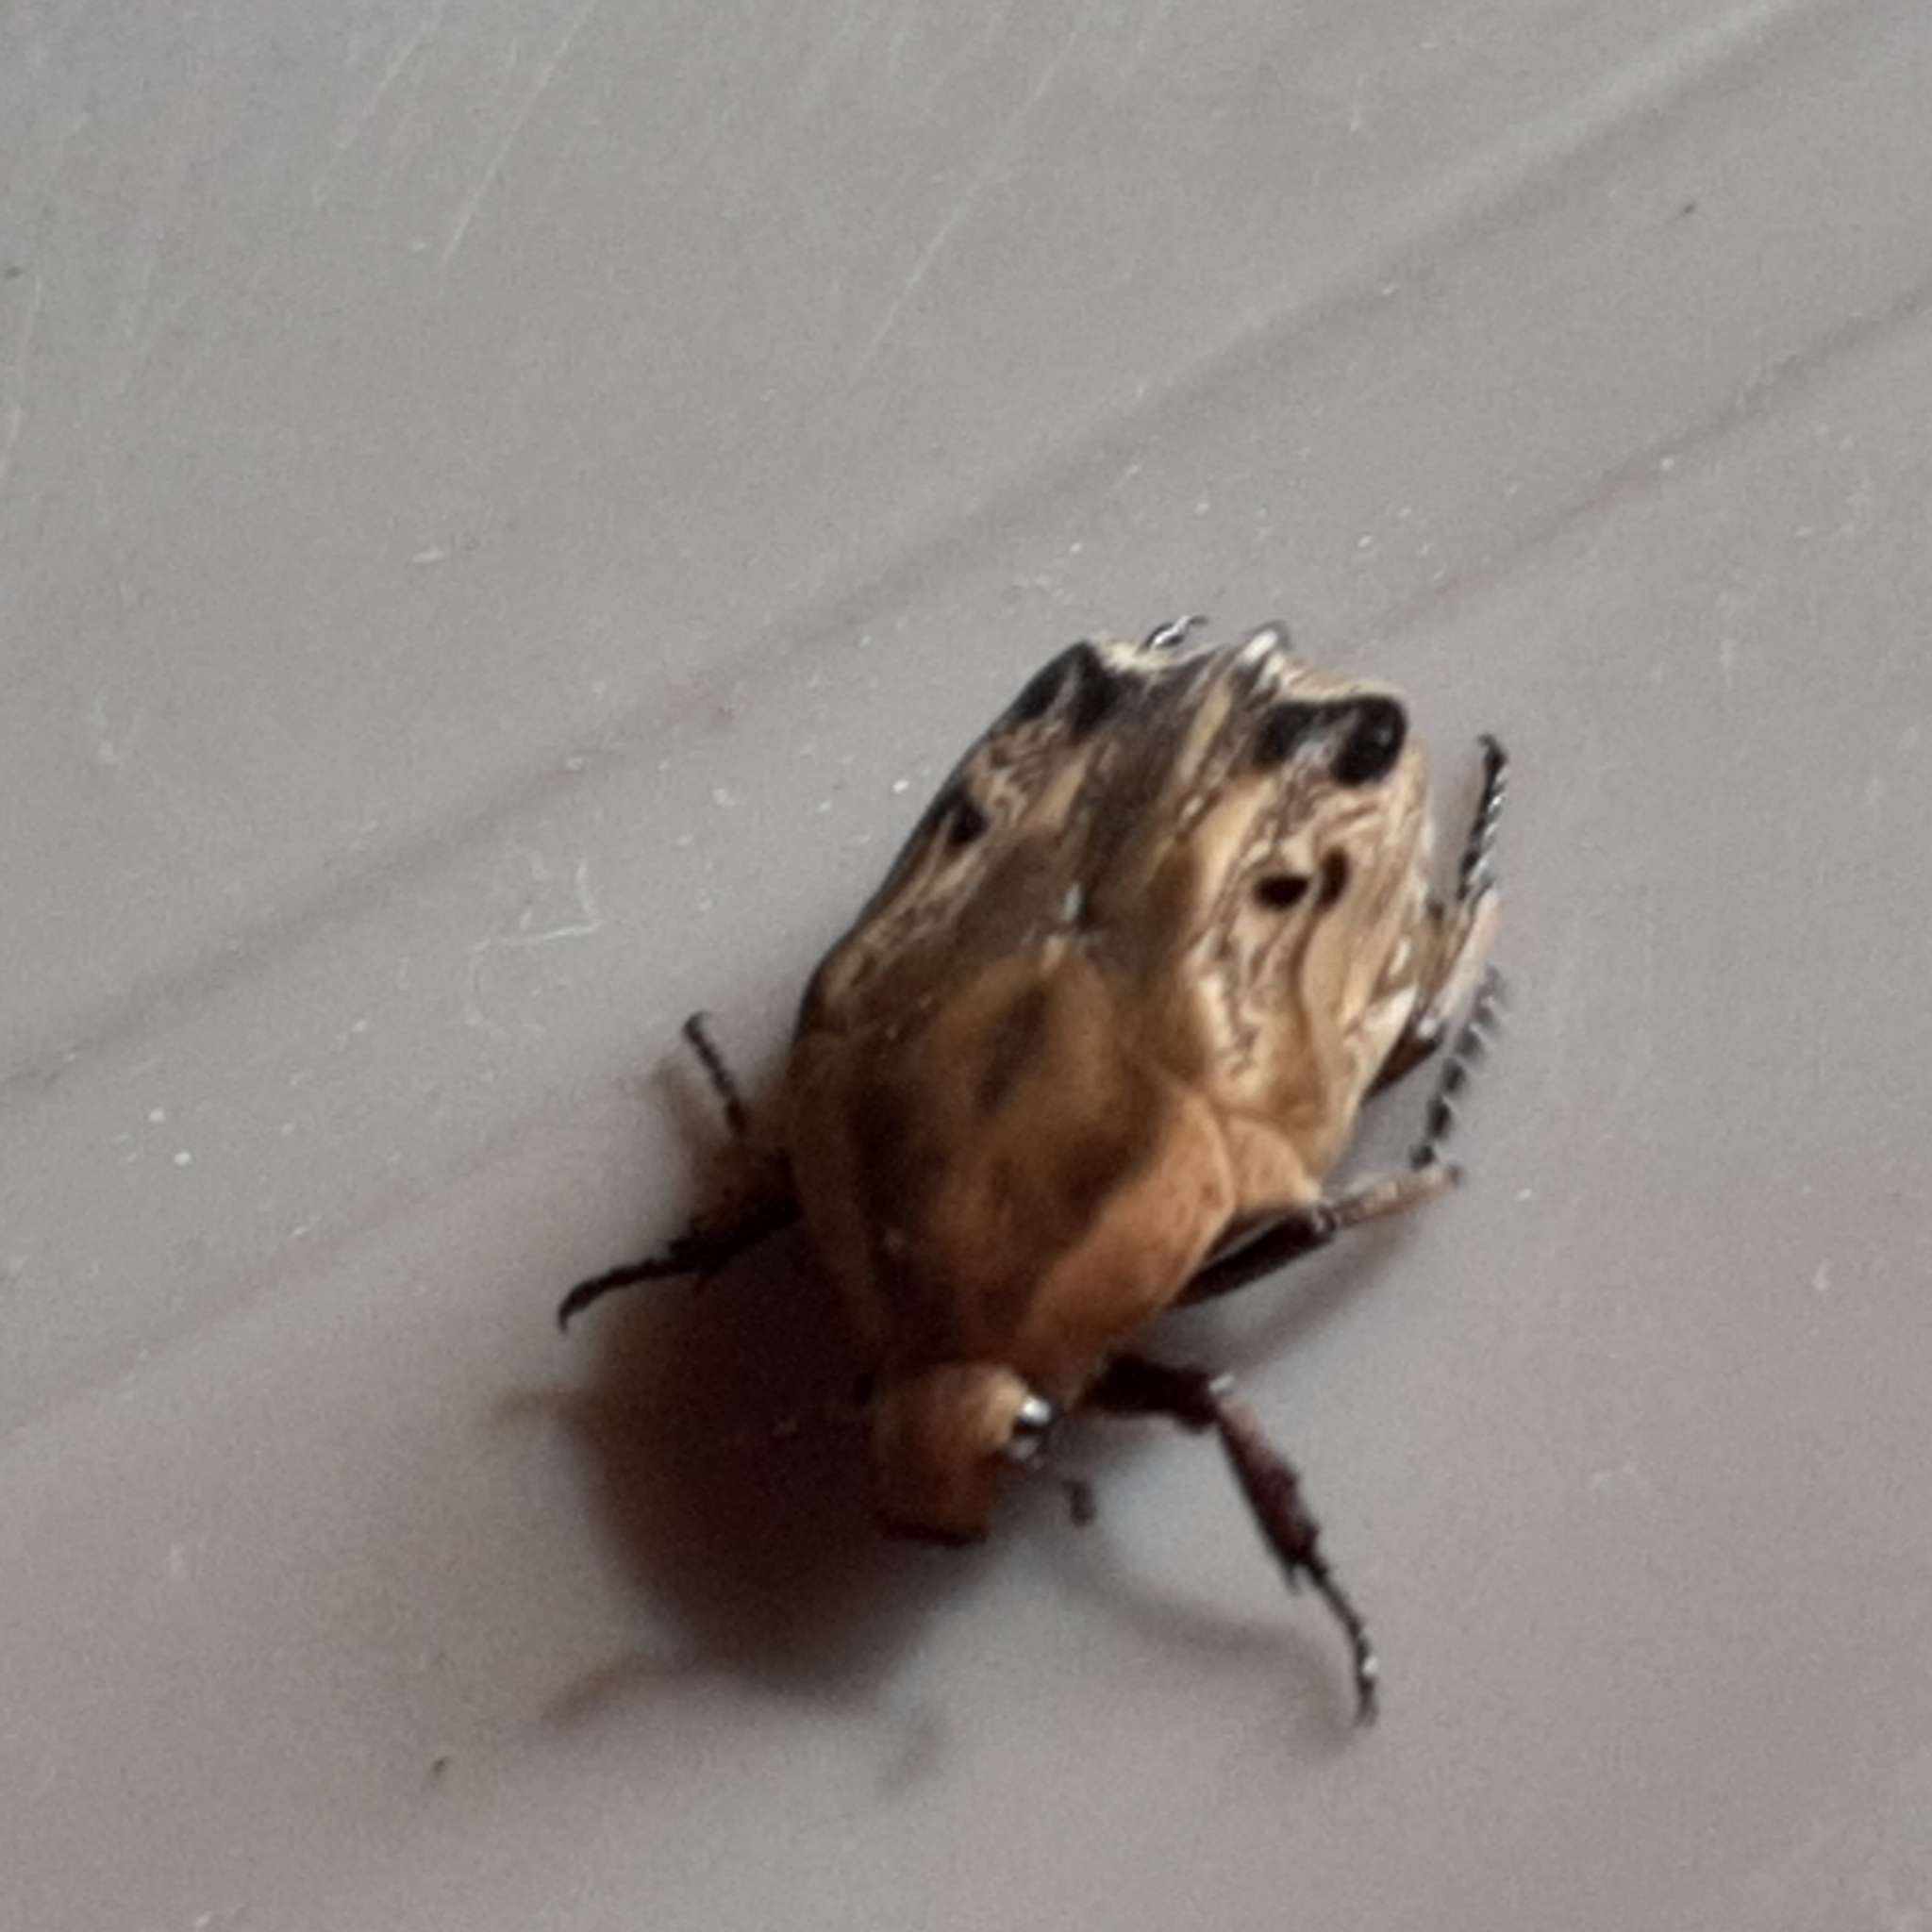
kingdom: Animalia
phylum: Arthropoda
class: Insecta
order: Coleoptera
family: Scarabaeidae
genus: Hoplopyga
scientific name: Hoplopyga liturata
